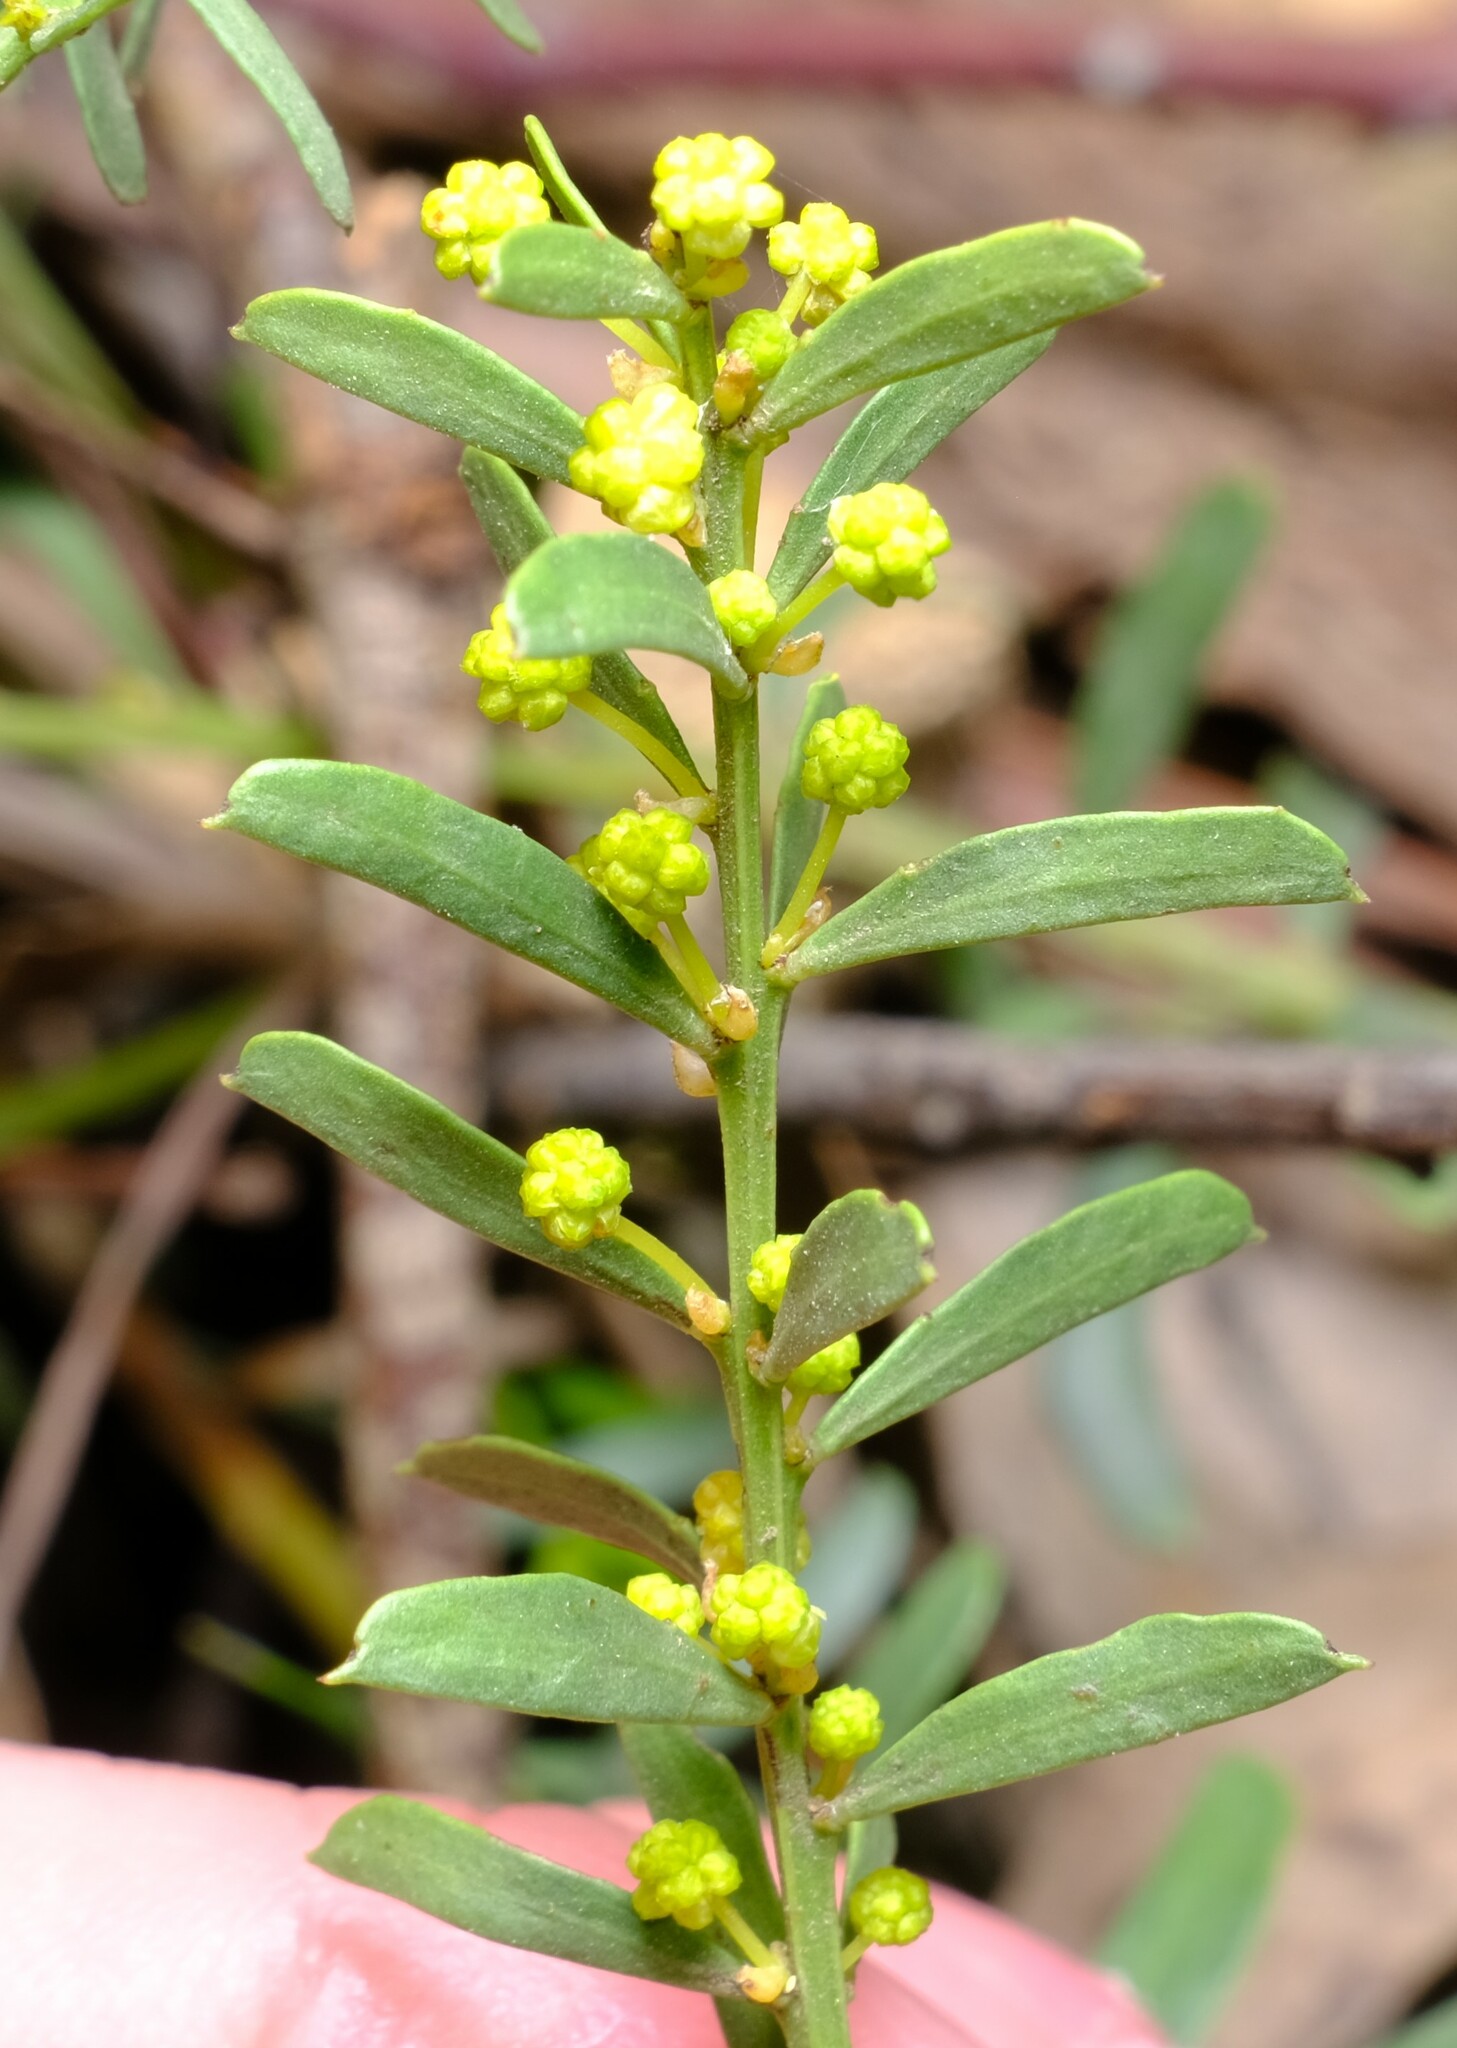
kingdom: Plantae
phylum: Tracheophyta
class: Magnoliopsida
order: Fabales
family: Fabaceae
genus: Acacia
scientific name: Acacia acinacea
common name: Gold-dust acacia
